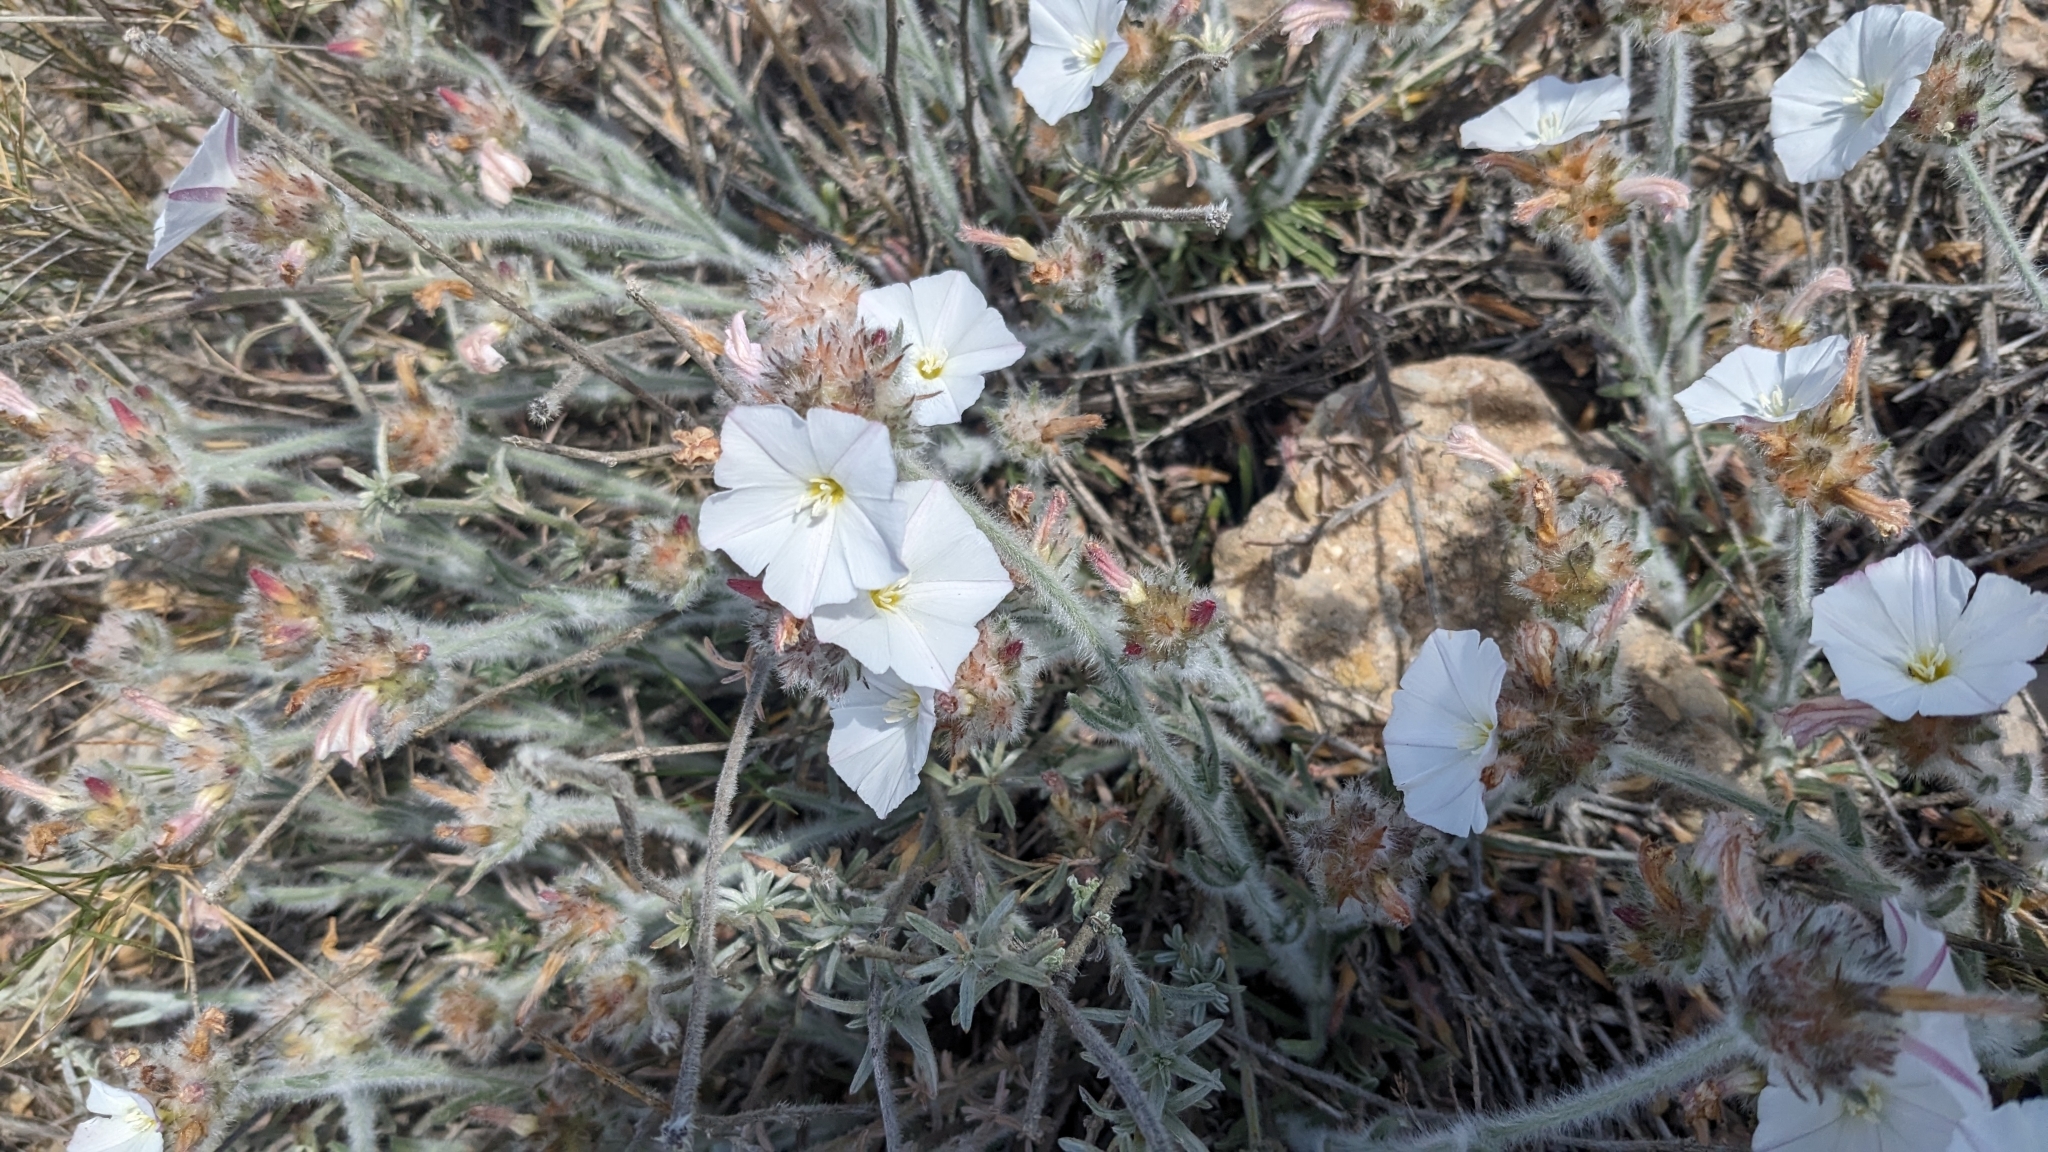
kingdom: Plantae
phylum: Tracheophyta
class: Magnoliopsida
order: Solanales
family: Convolvulaceae
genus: Convolvulus
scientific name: Convolvulus lanuginosus
